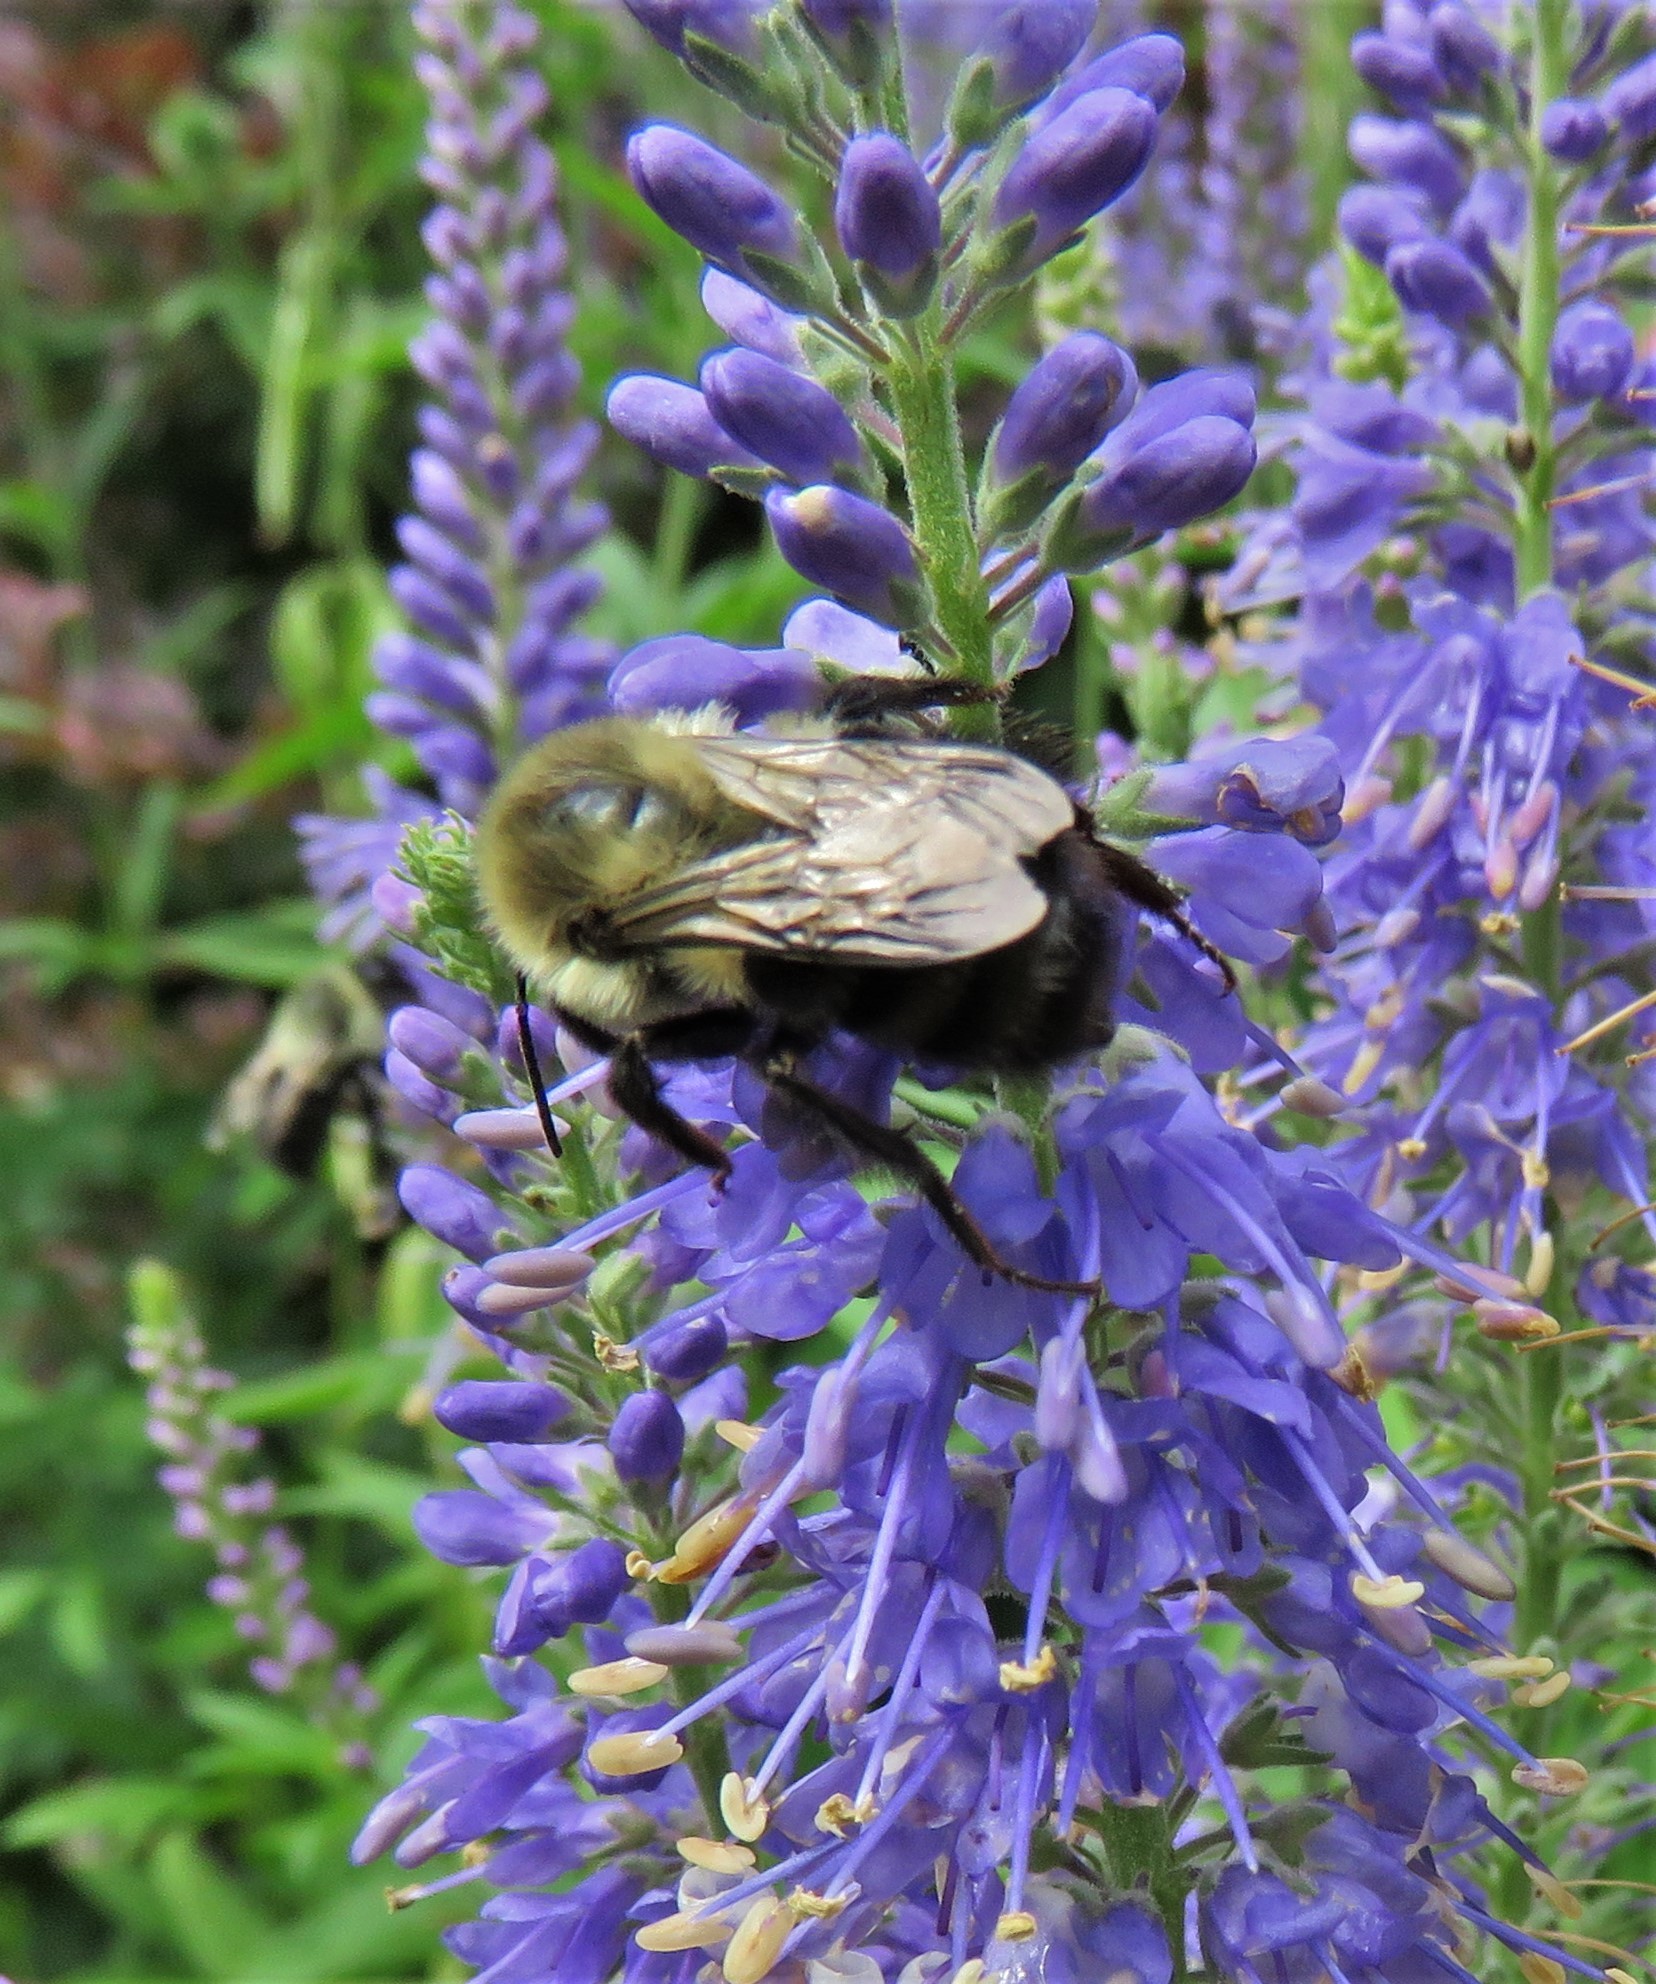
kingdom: Animalia
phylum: Arthropoda
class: Insecta
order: Hymenoptera
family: Apidae
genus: Bombus
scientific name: Bombus impatiens
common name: Common eastern bumble bee
